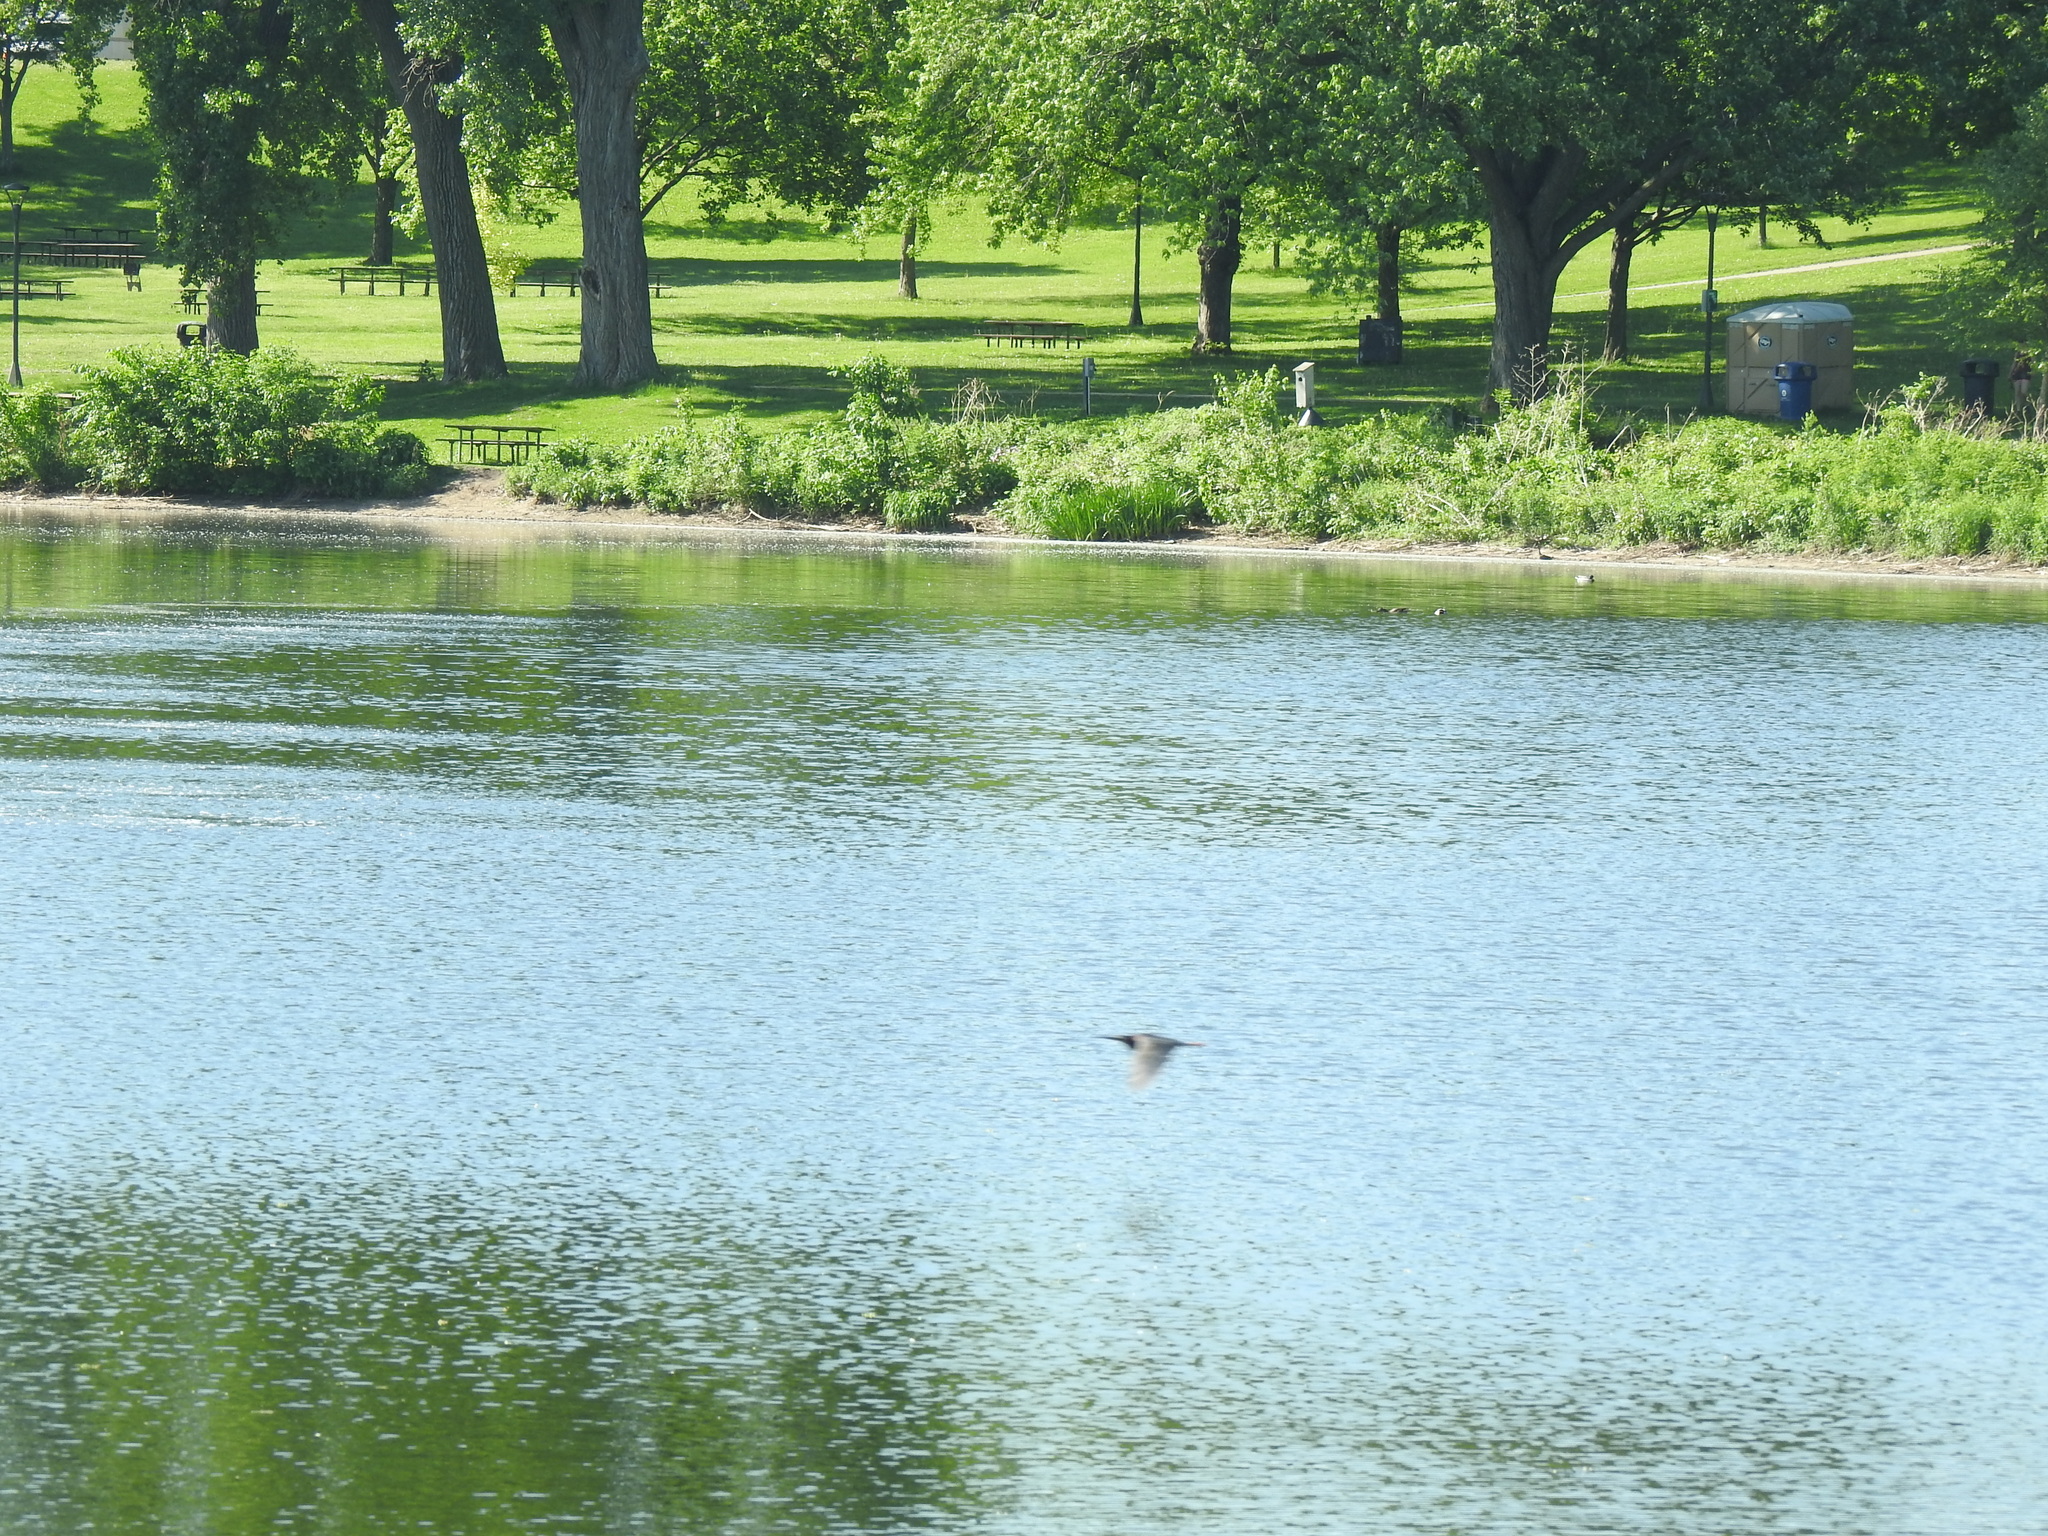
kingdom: Animalia
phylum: Chordata
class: Aves
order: Pelecaniformes
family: Ardeidae
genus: Butorides
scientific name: Butorides virescens
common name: Green heron
